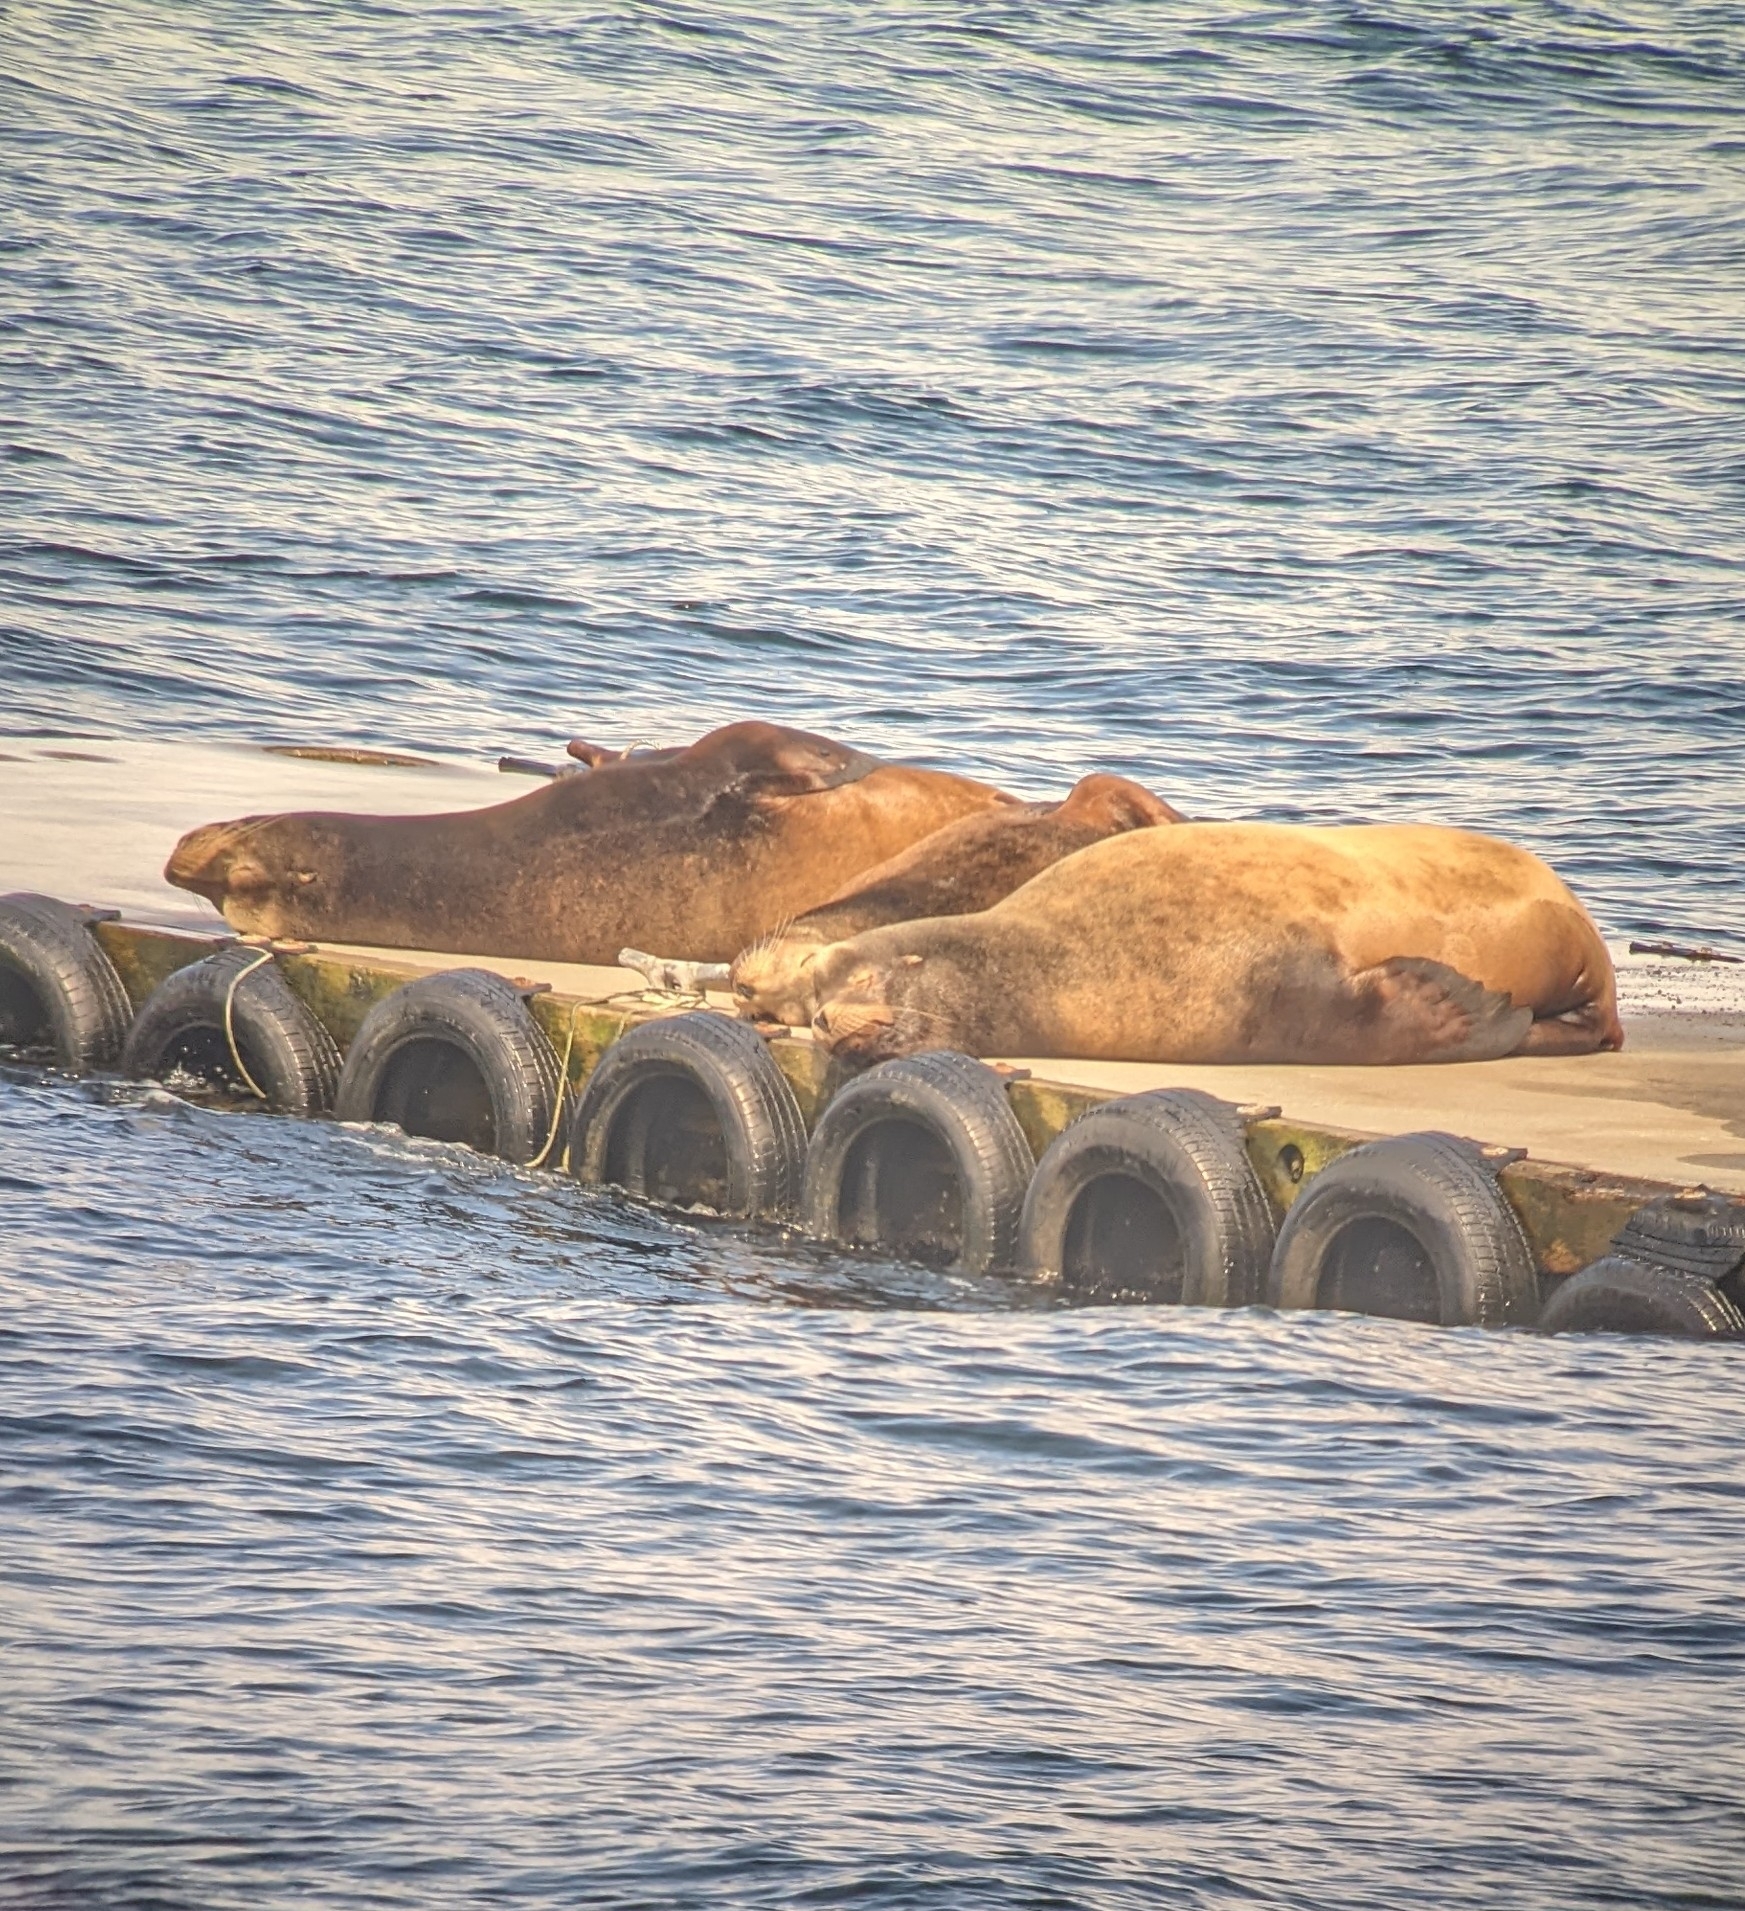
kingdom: Animalia
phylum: Chordata
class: Mammalia
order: Carnivora
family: Otariidae
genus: Eumetopias
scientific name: Eumetopias jubatus
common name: Steller sea lion
